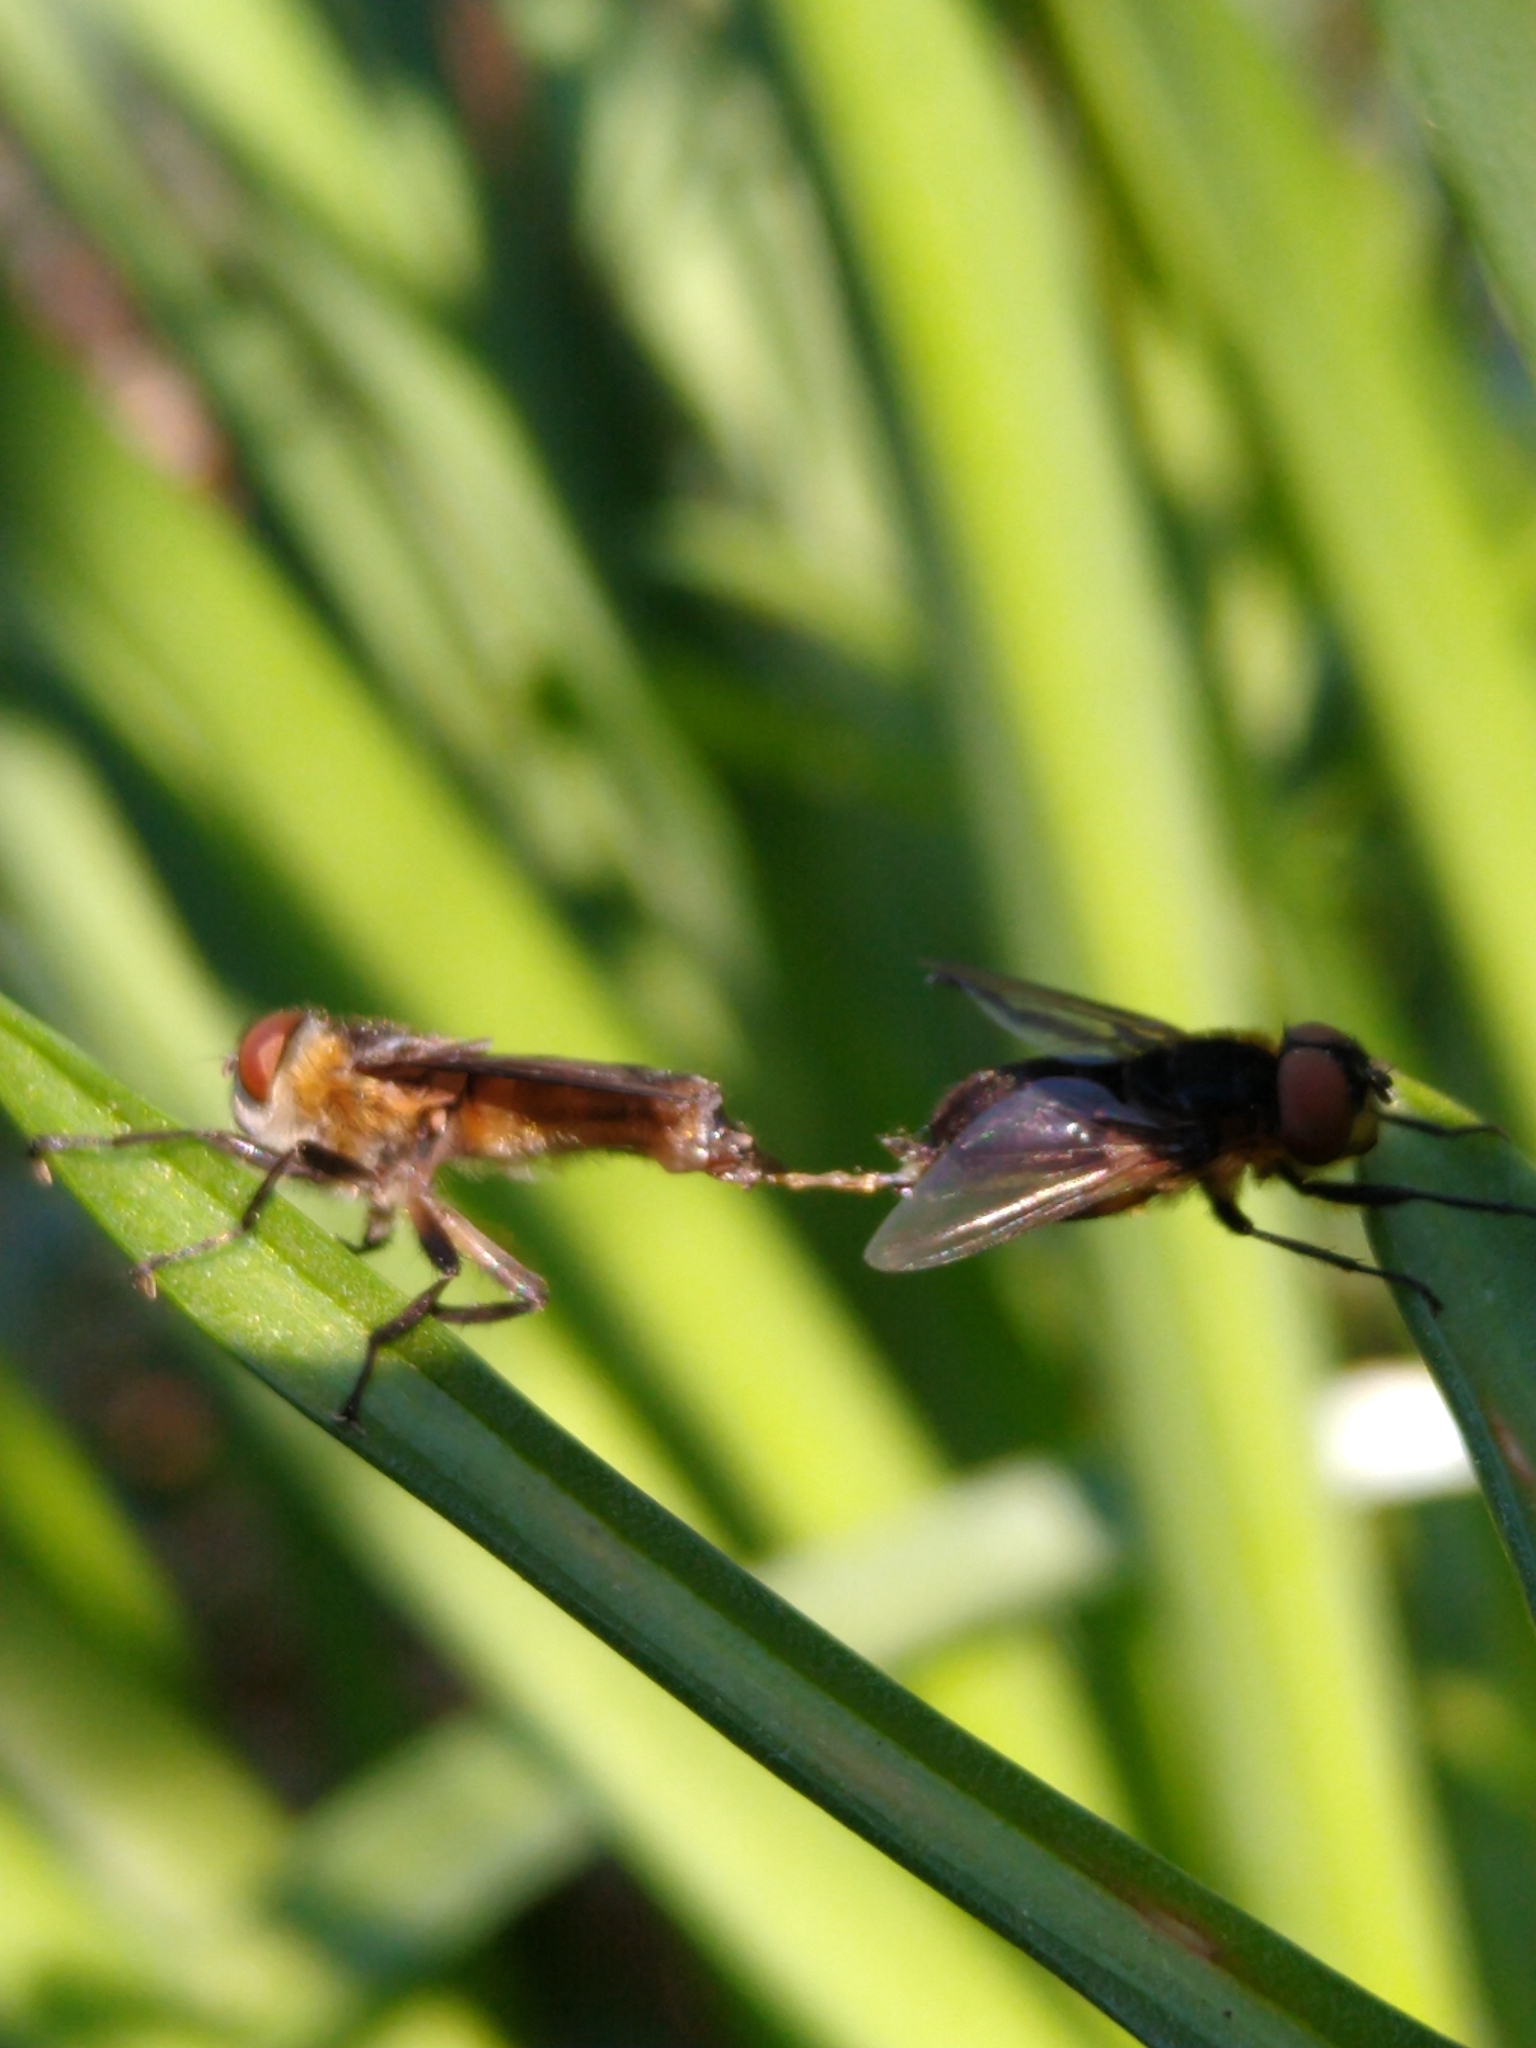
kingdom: Animalia
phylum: Arthropoda
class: Insecta
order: Diptera
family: Tachinidae
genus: Phasia
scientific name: Phasia hemiptera
